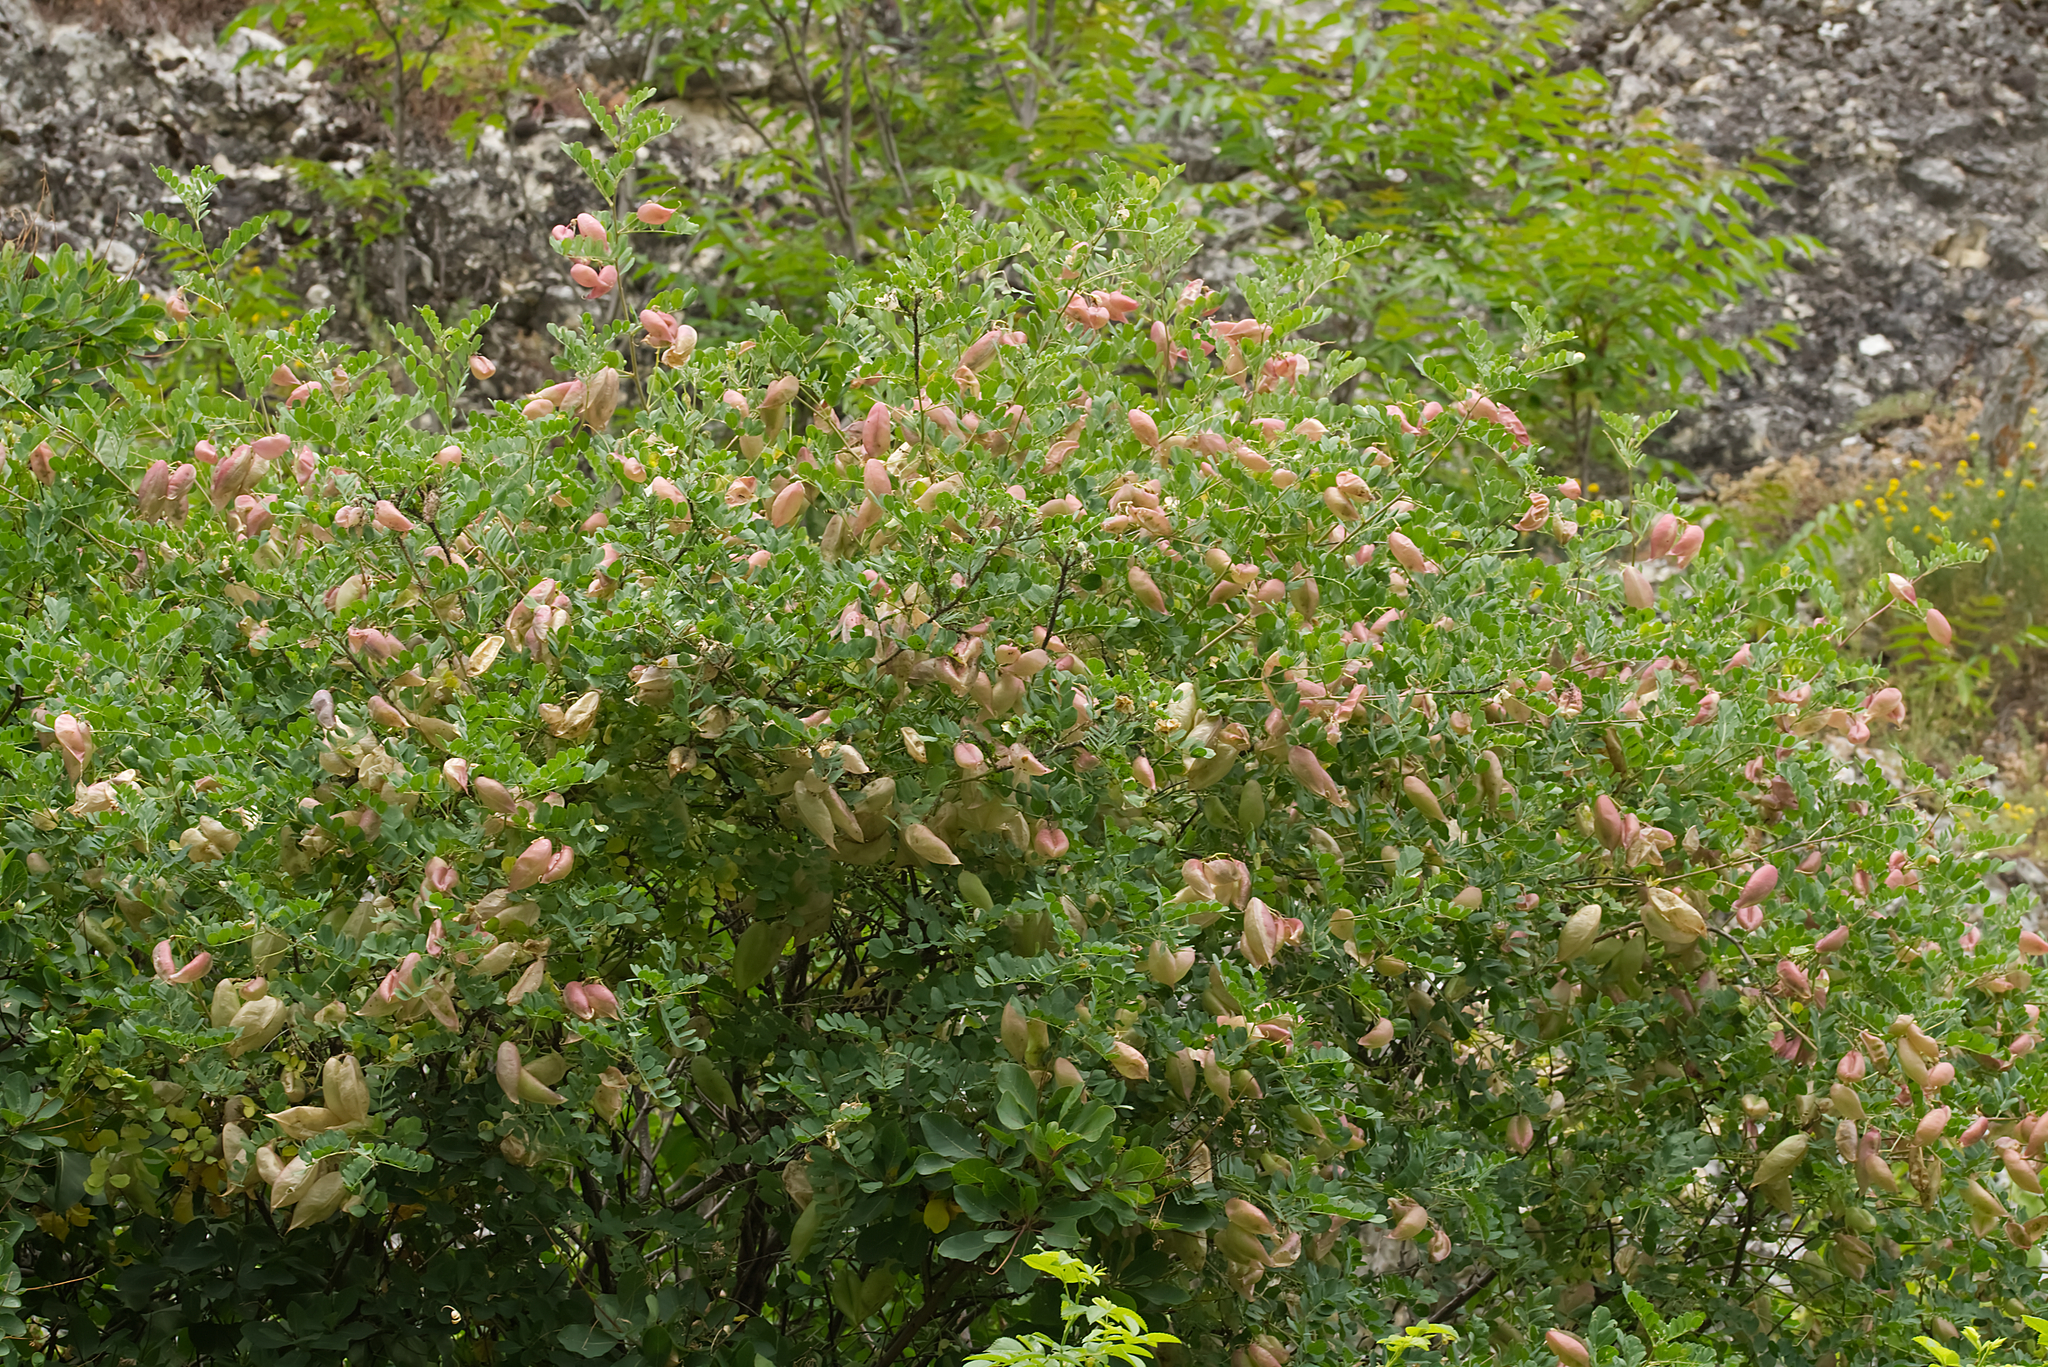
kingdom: Plantae
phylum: Tracheophyta
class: Magnoliopsida
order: Fabales
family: Fabaceae
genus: Colutea
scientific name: Colutea arborescens
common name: Bladder-senna
